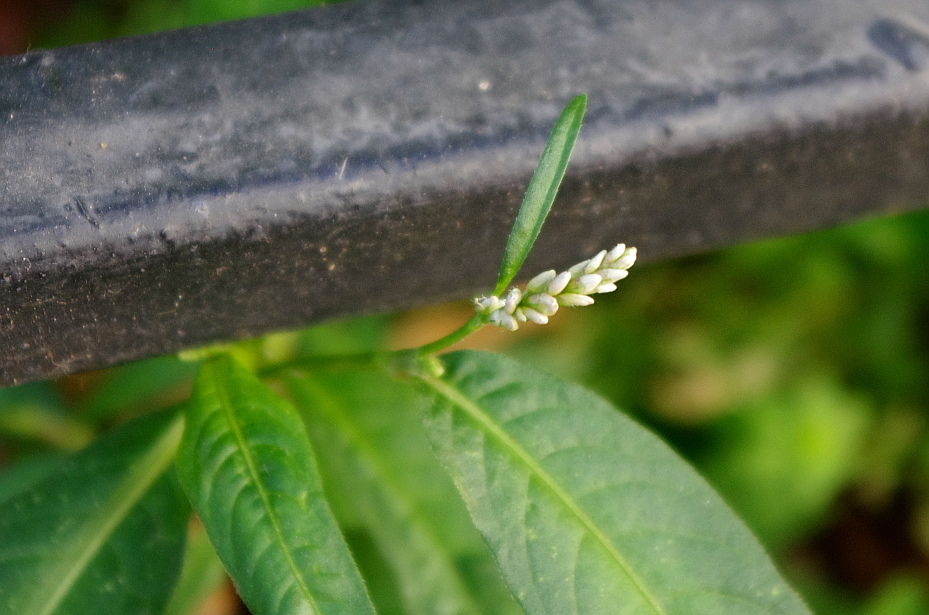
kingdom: Plantae
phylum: Tracheophyta
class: Magnoliopsida
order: Caryophyllales
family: Polygonaceae
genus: Persicaria
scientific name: Persicaria maculosa
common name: Redshank
